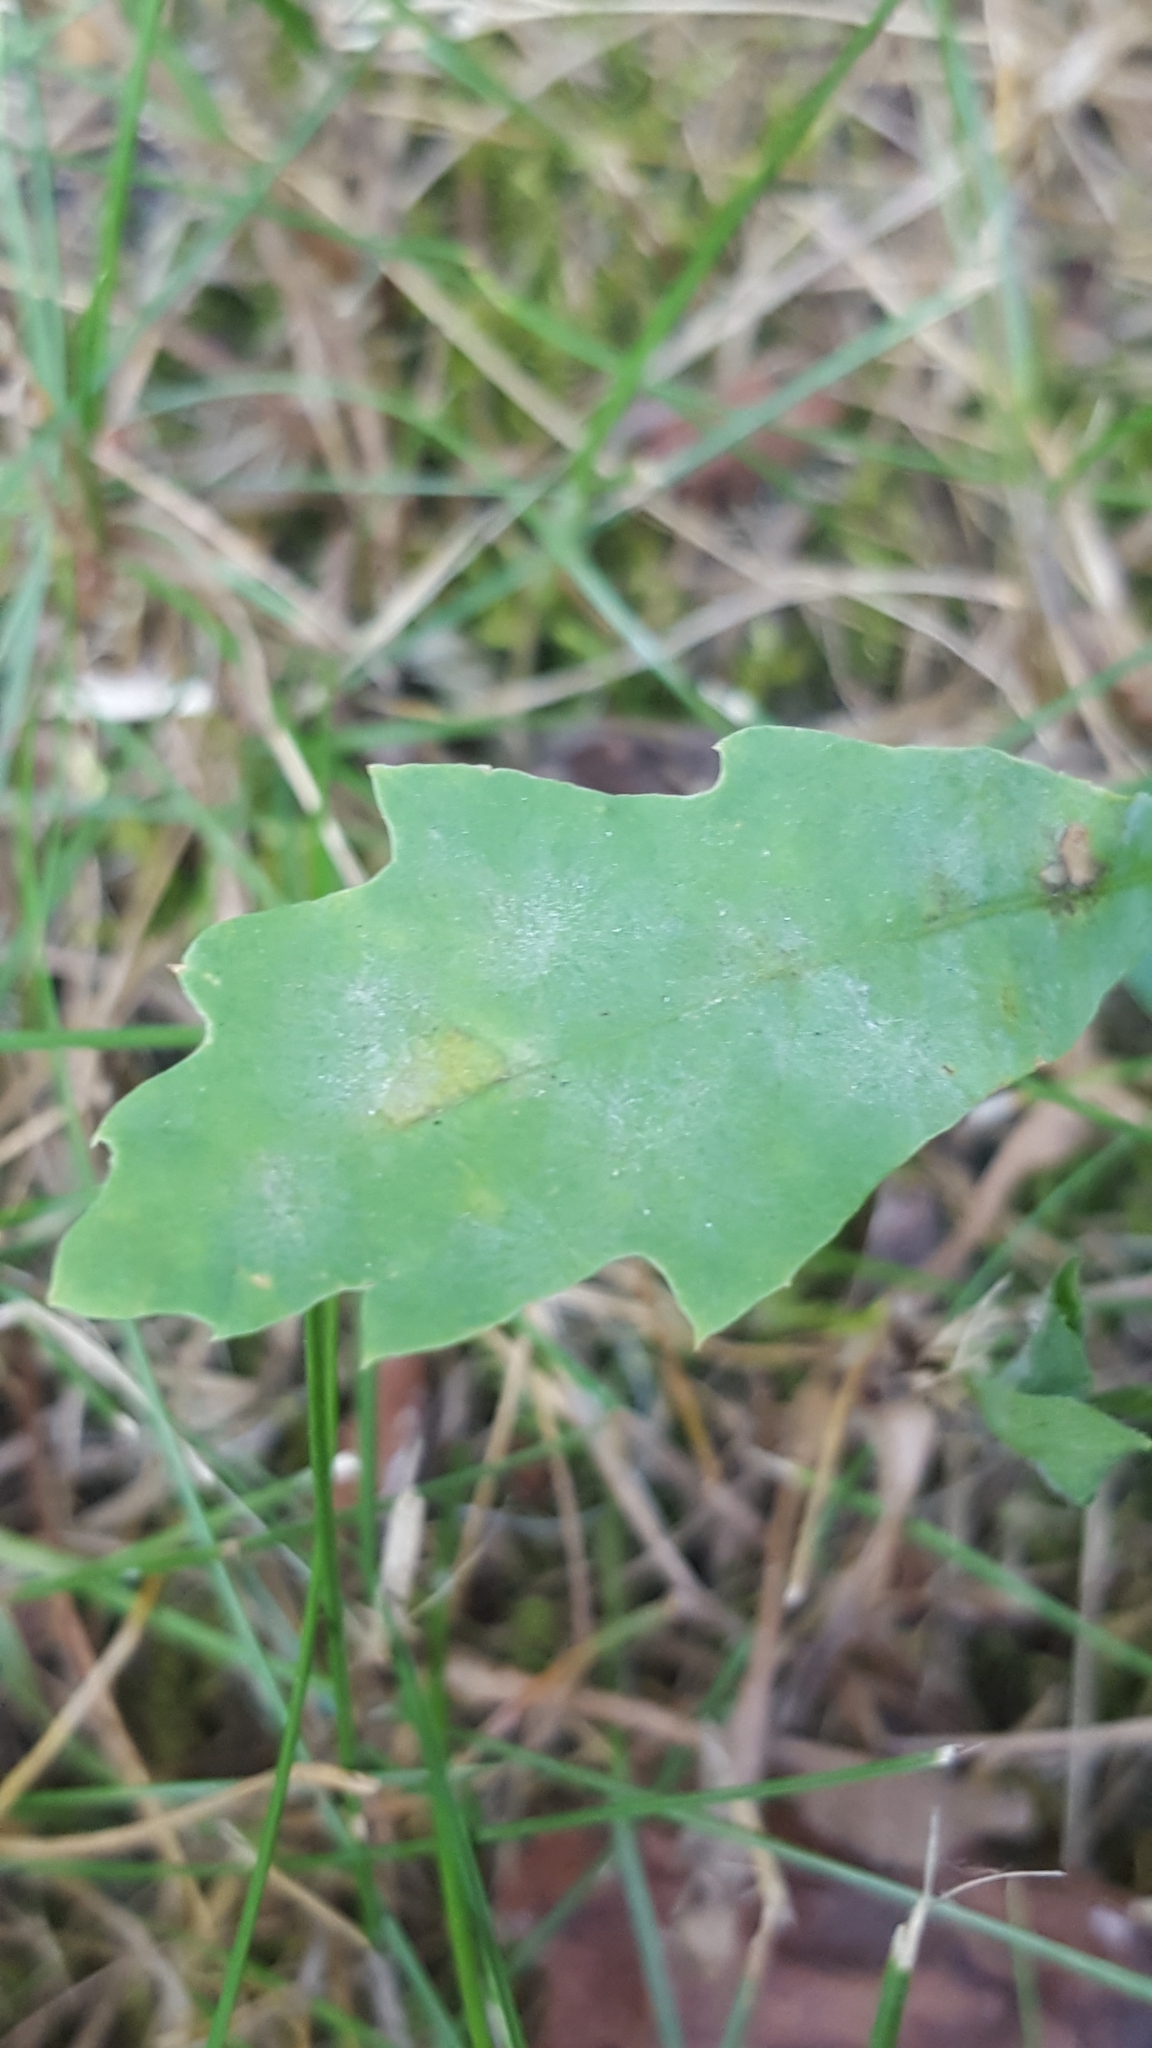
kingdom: Fungi
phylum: Ascomycota
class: Leotiomycetes
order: Helotiales
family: Erysiphaceae
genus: Erysiphe
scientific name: Erysiphe
